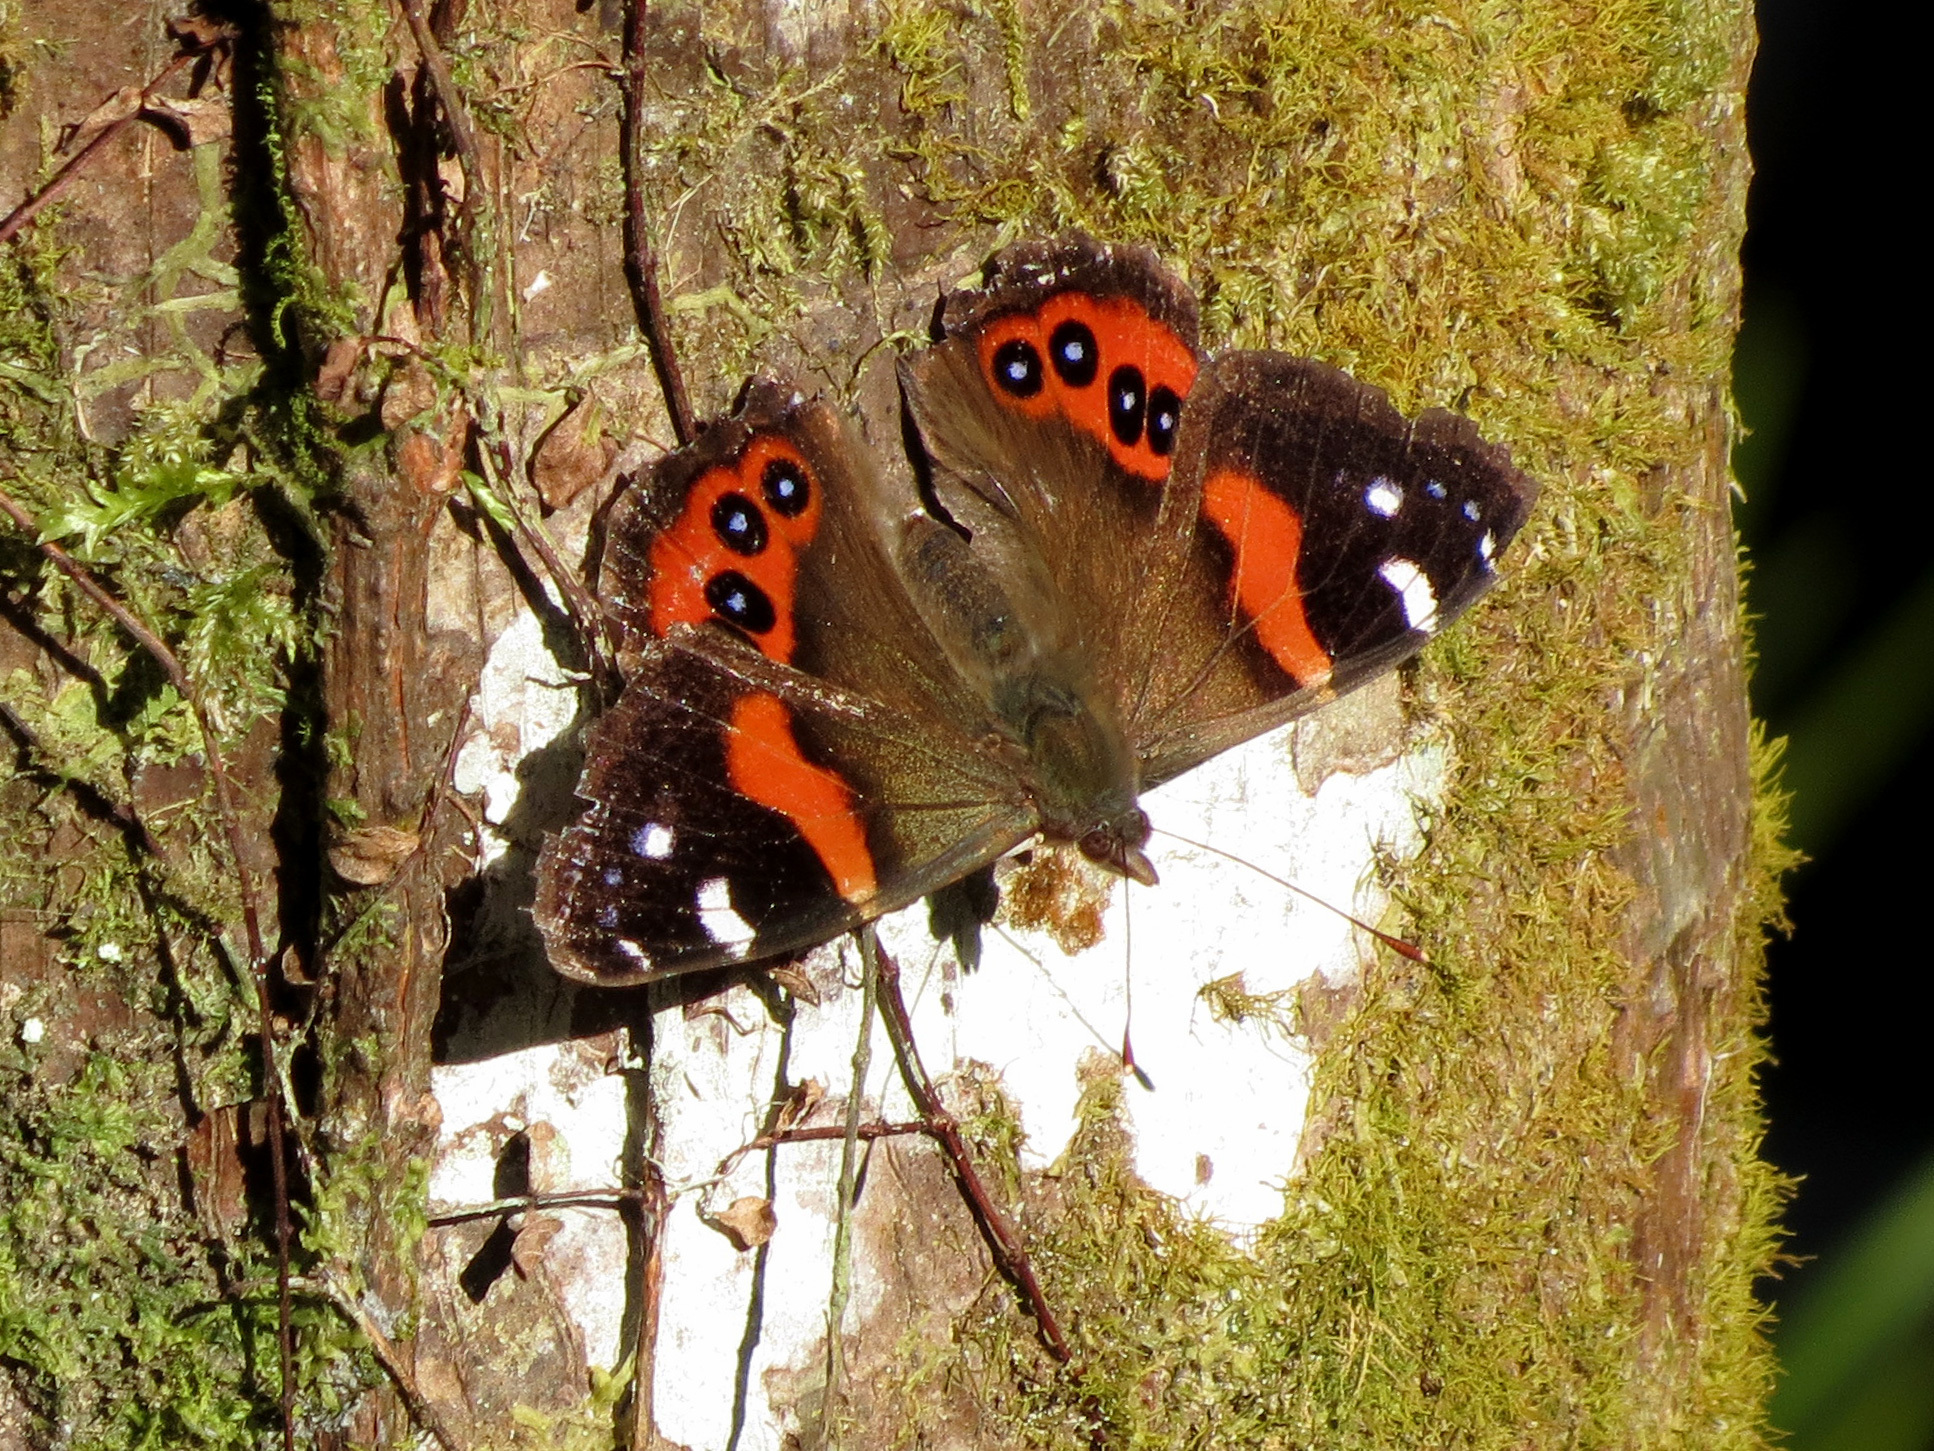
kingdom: Animalia
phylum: Arthropoda
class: Insecta
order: Lepidoptera
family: Nymphalidae
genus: Vanessa
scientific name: Vanessa gonerilla
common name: New zealand red admiral
